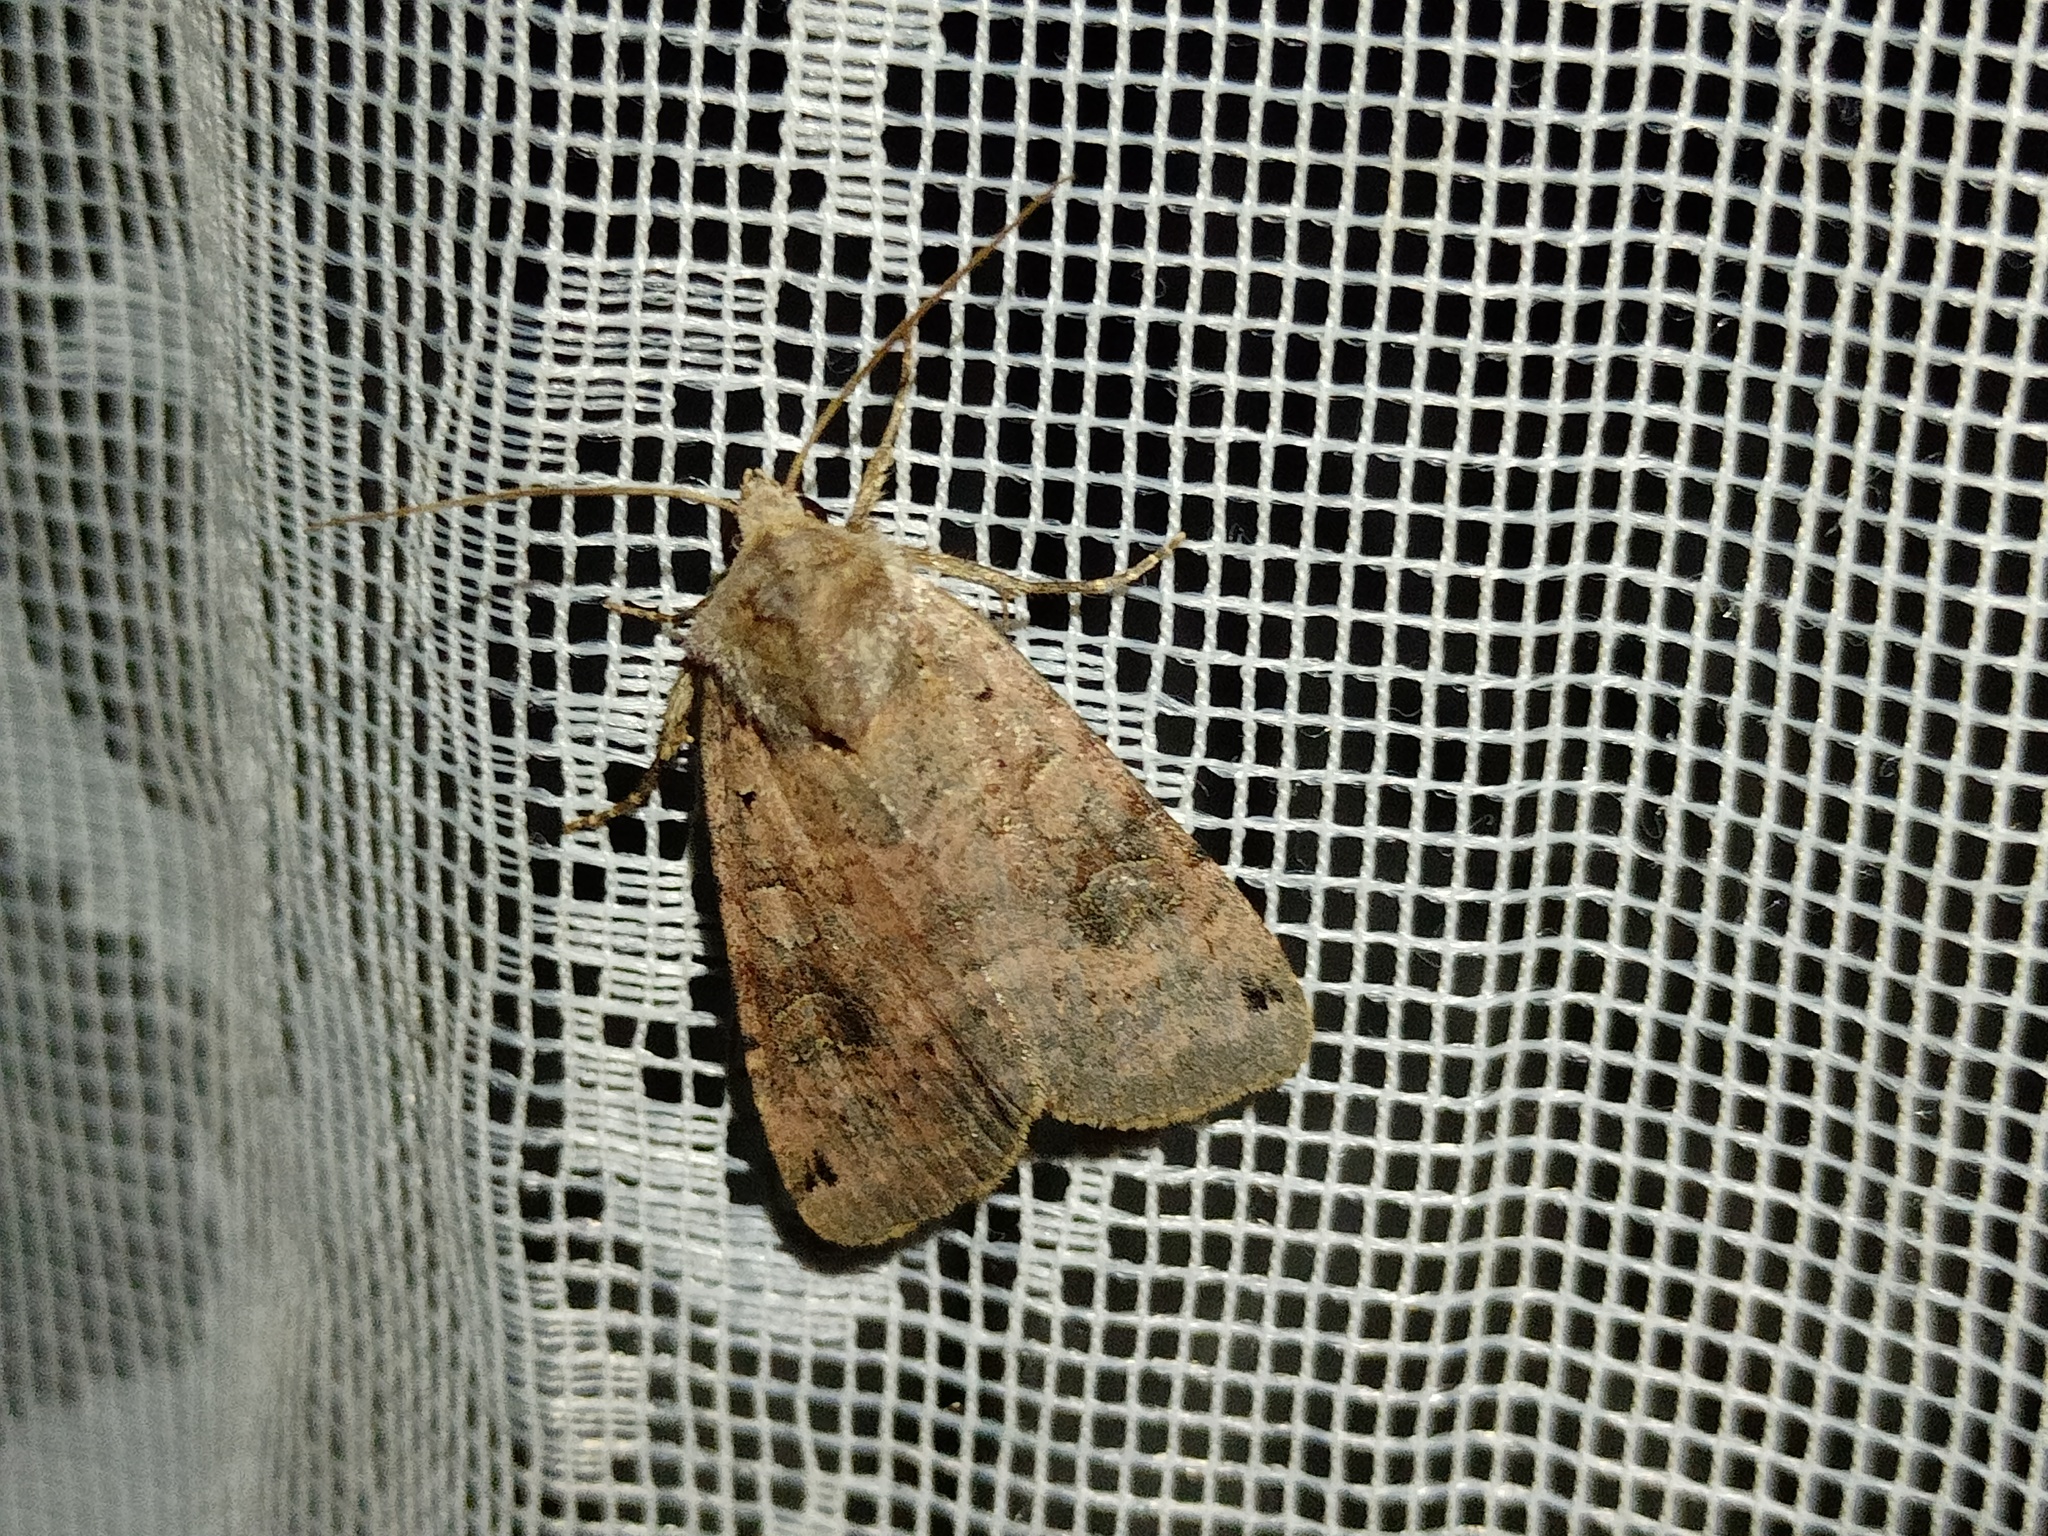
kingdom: Animalia
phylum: Arthropoda
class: Insecta
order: Lepidoptera
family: Noctuidae
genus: Xestia
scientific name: Xestia baja
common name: Dotted clay
